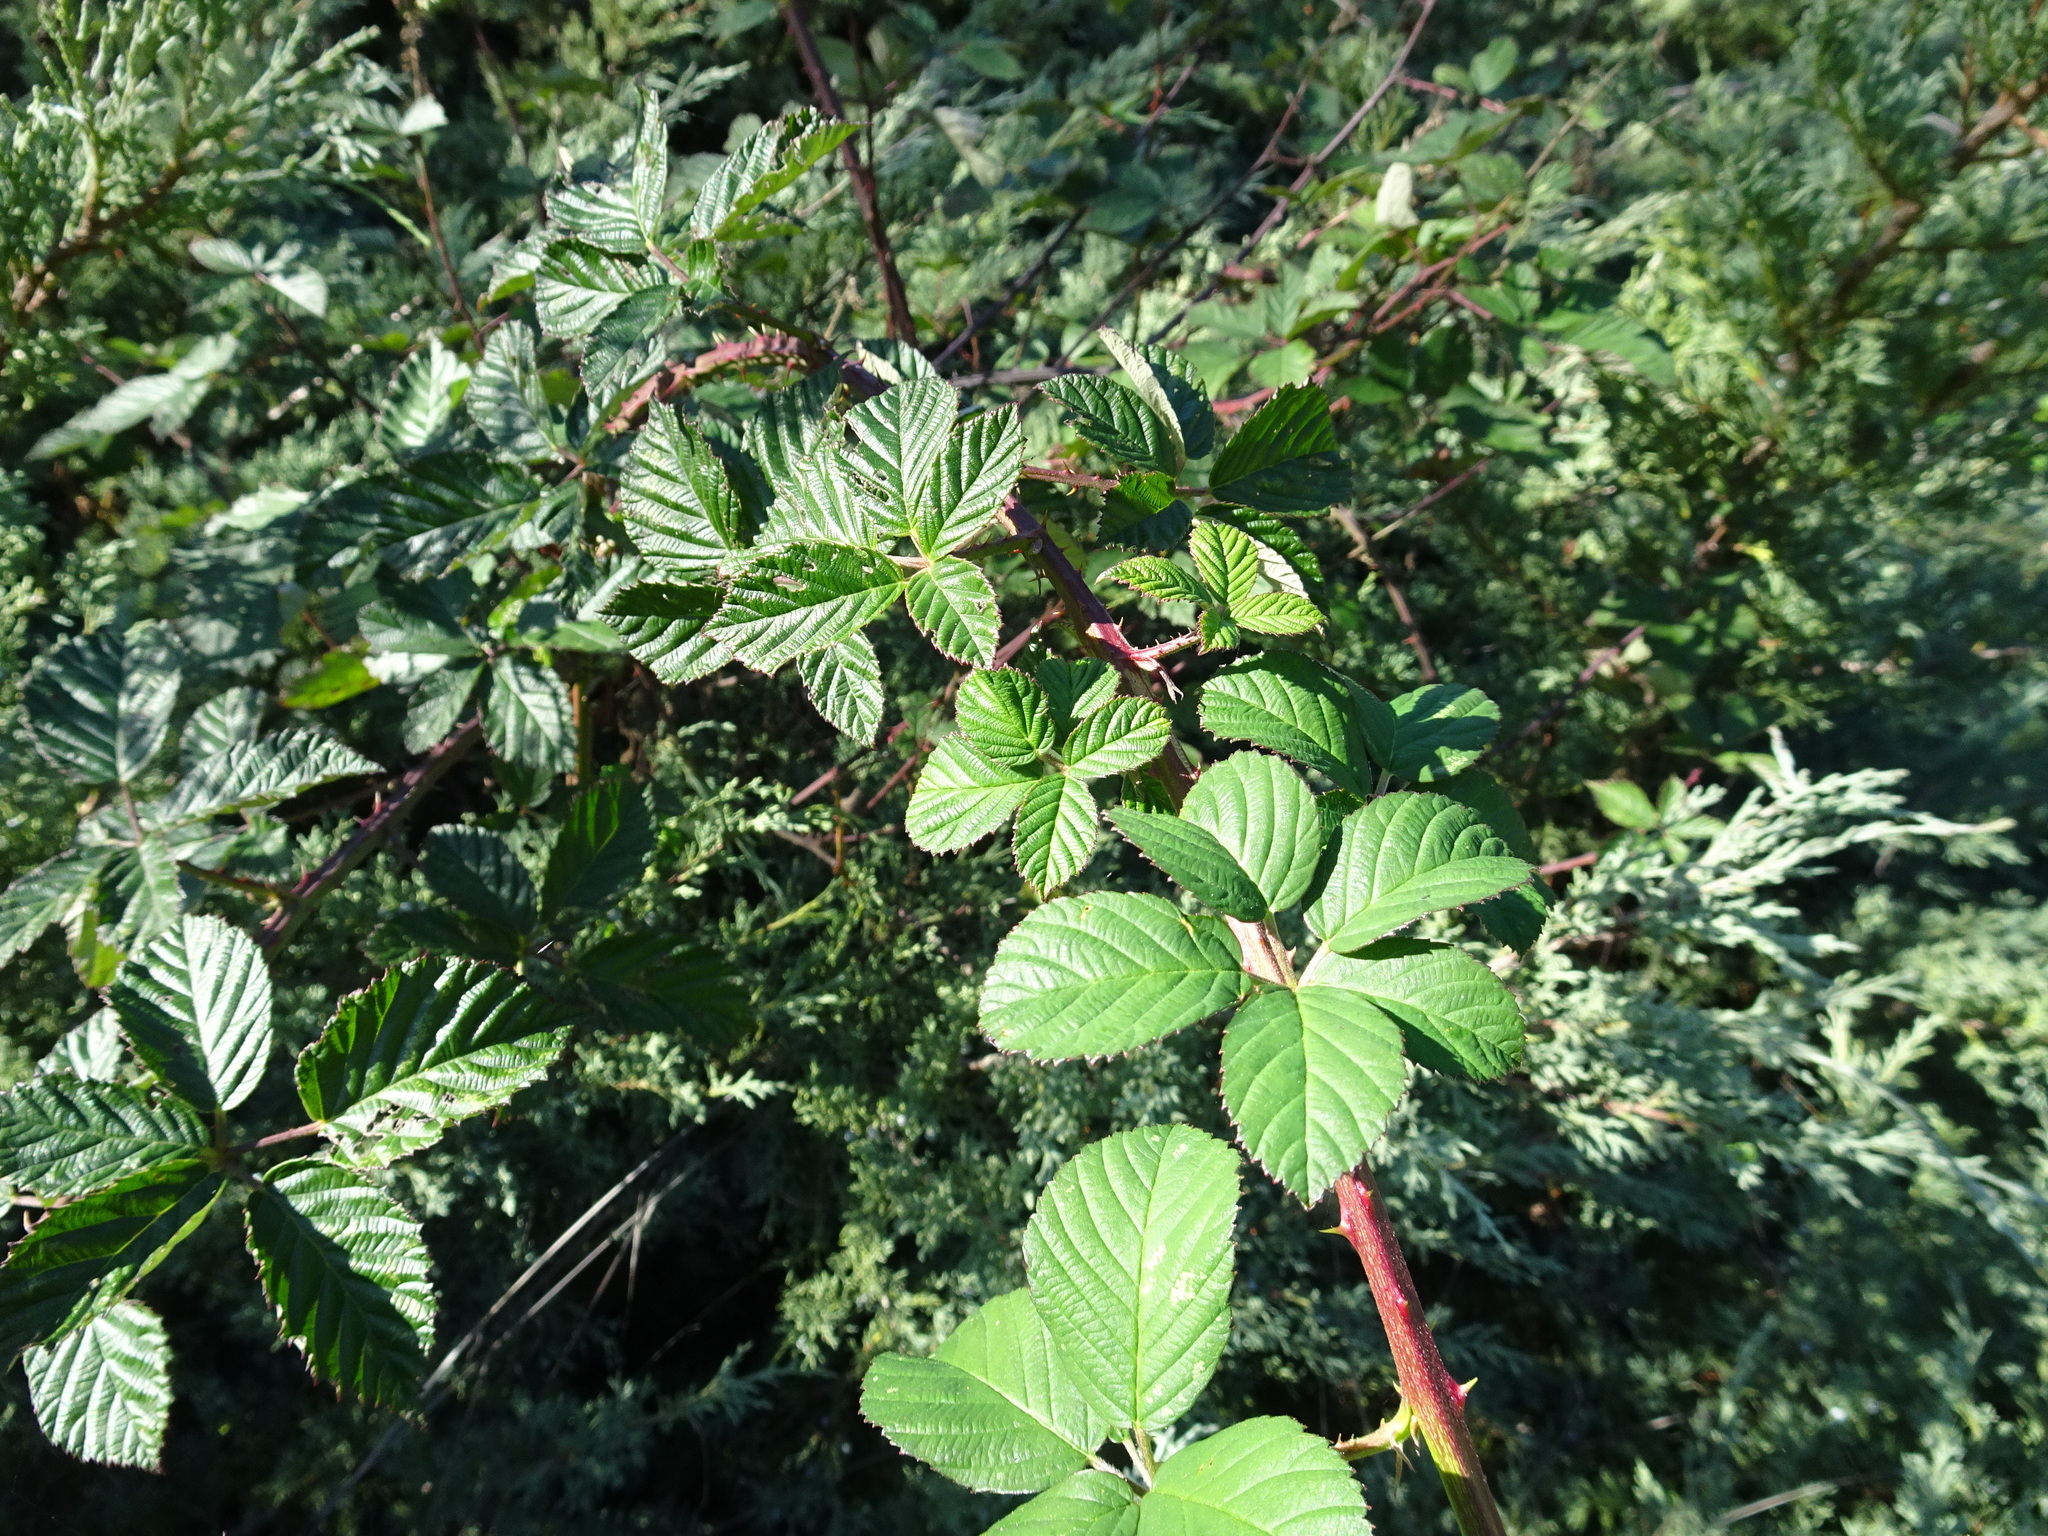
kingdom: Plantae
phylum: Tracheophyta
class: Magnoliopsida
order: Rosales
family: Rosaceae
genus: Rubus
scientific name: Rubus armeniacus
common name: Himalayan blackberry
